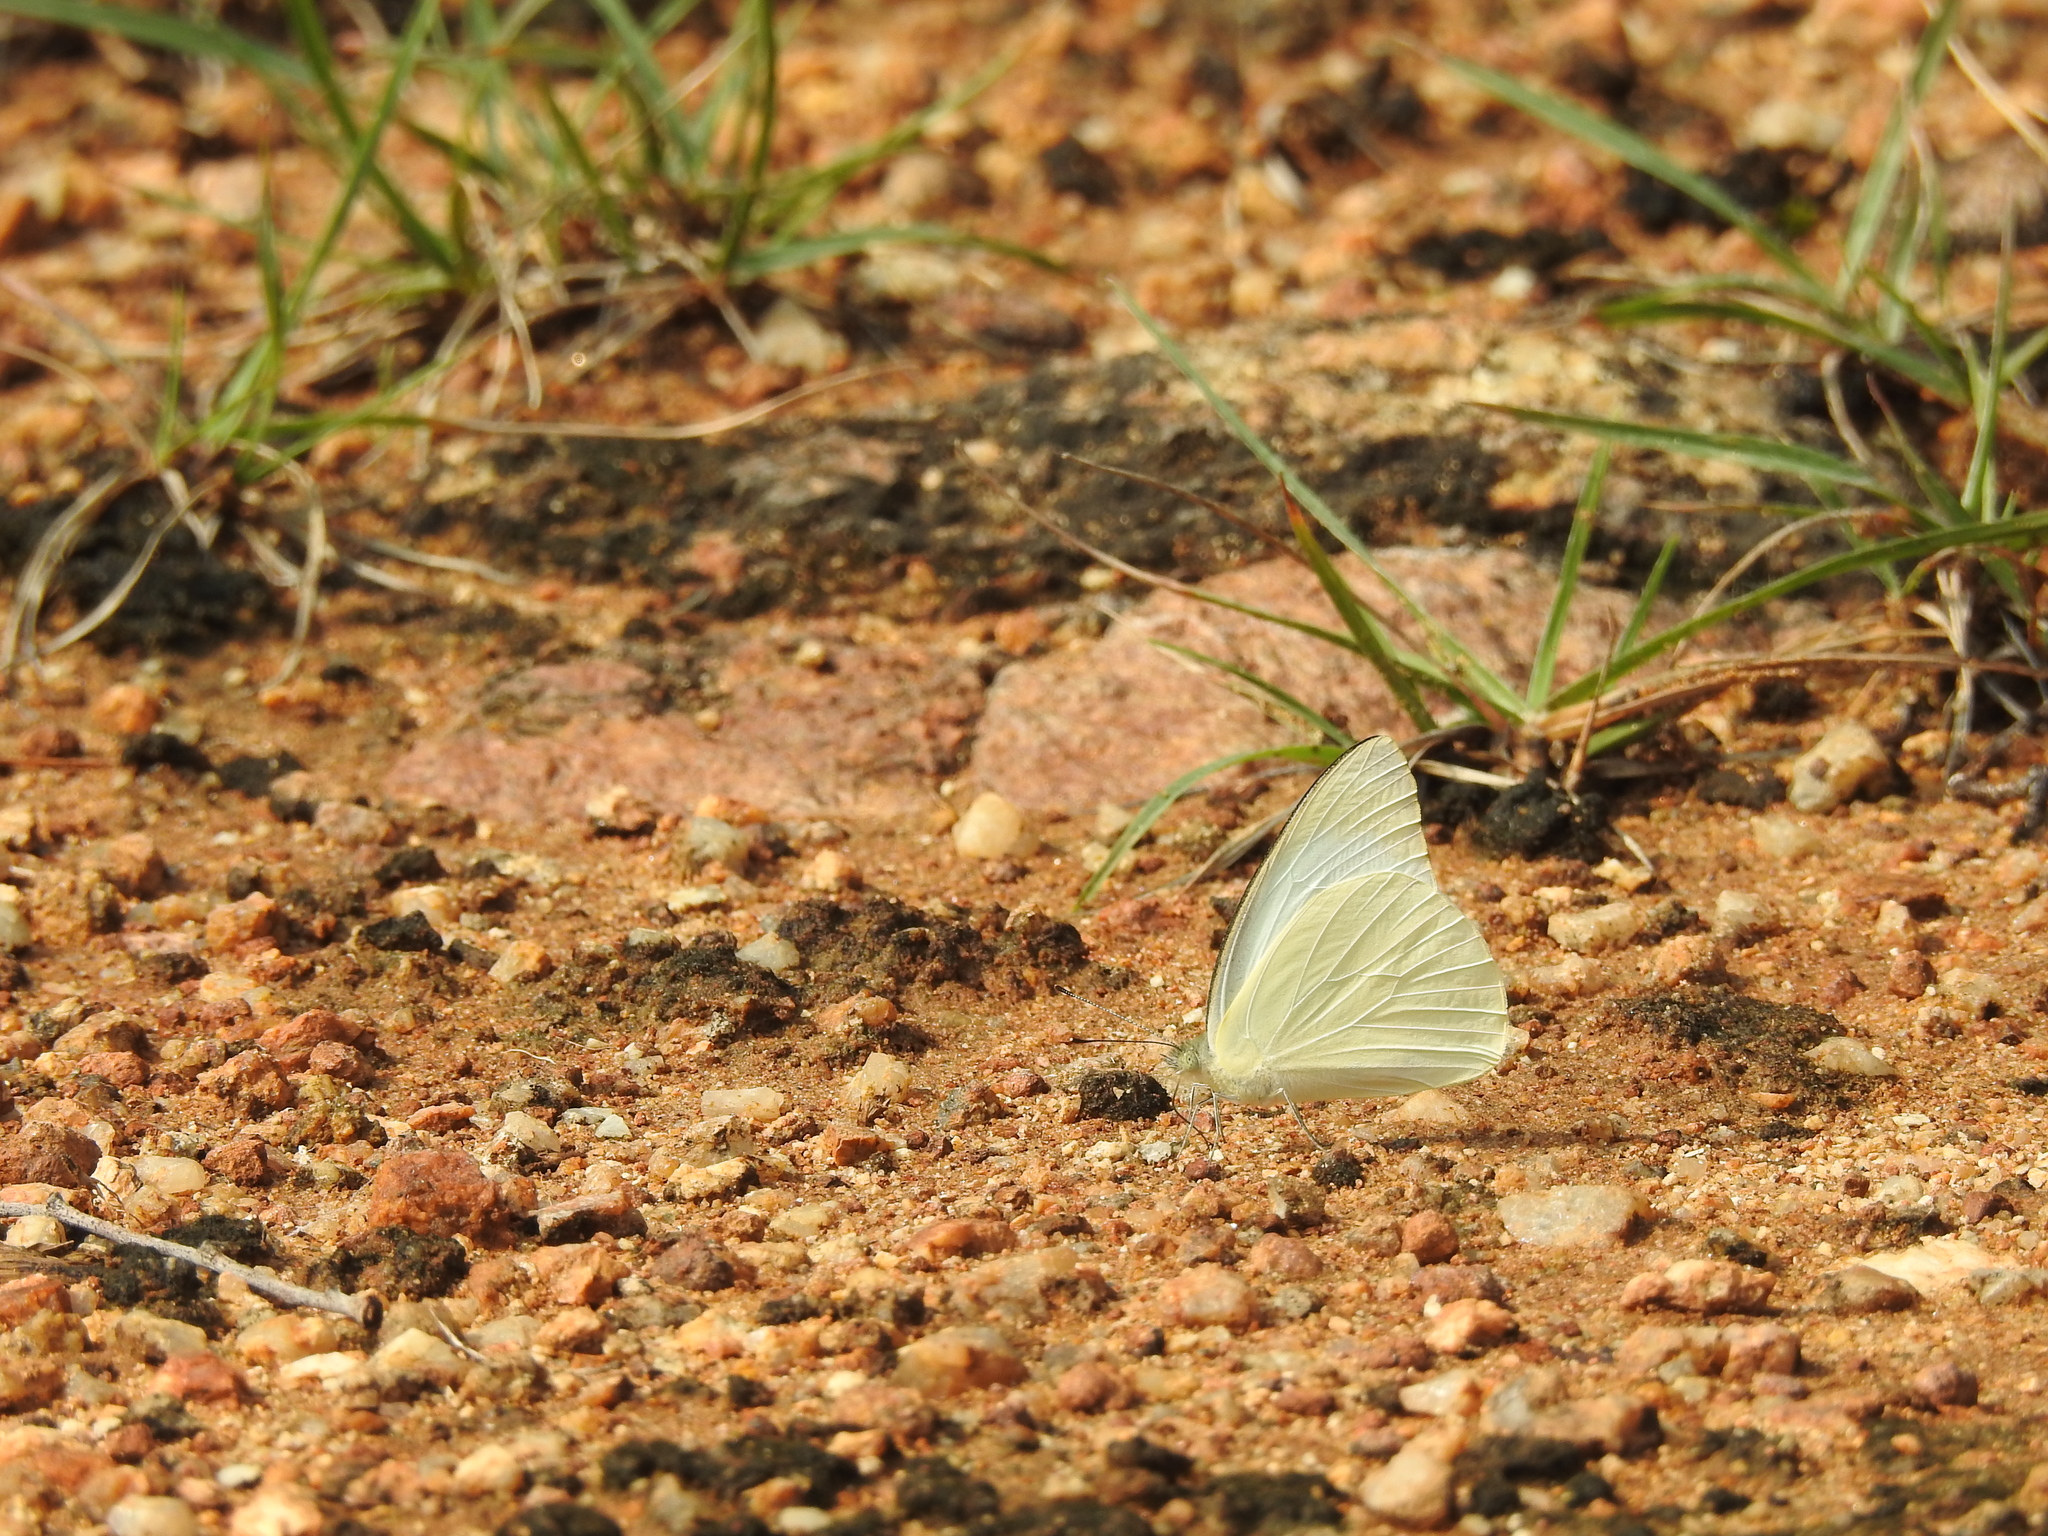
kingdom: Animalia
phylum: Arthropoda
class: Insecta
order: Lepidoptera
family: Pieridae
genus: Appias
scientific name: Appias albina
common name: Common albatross
